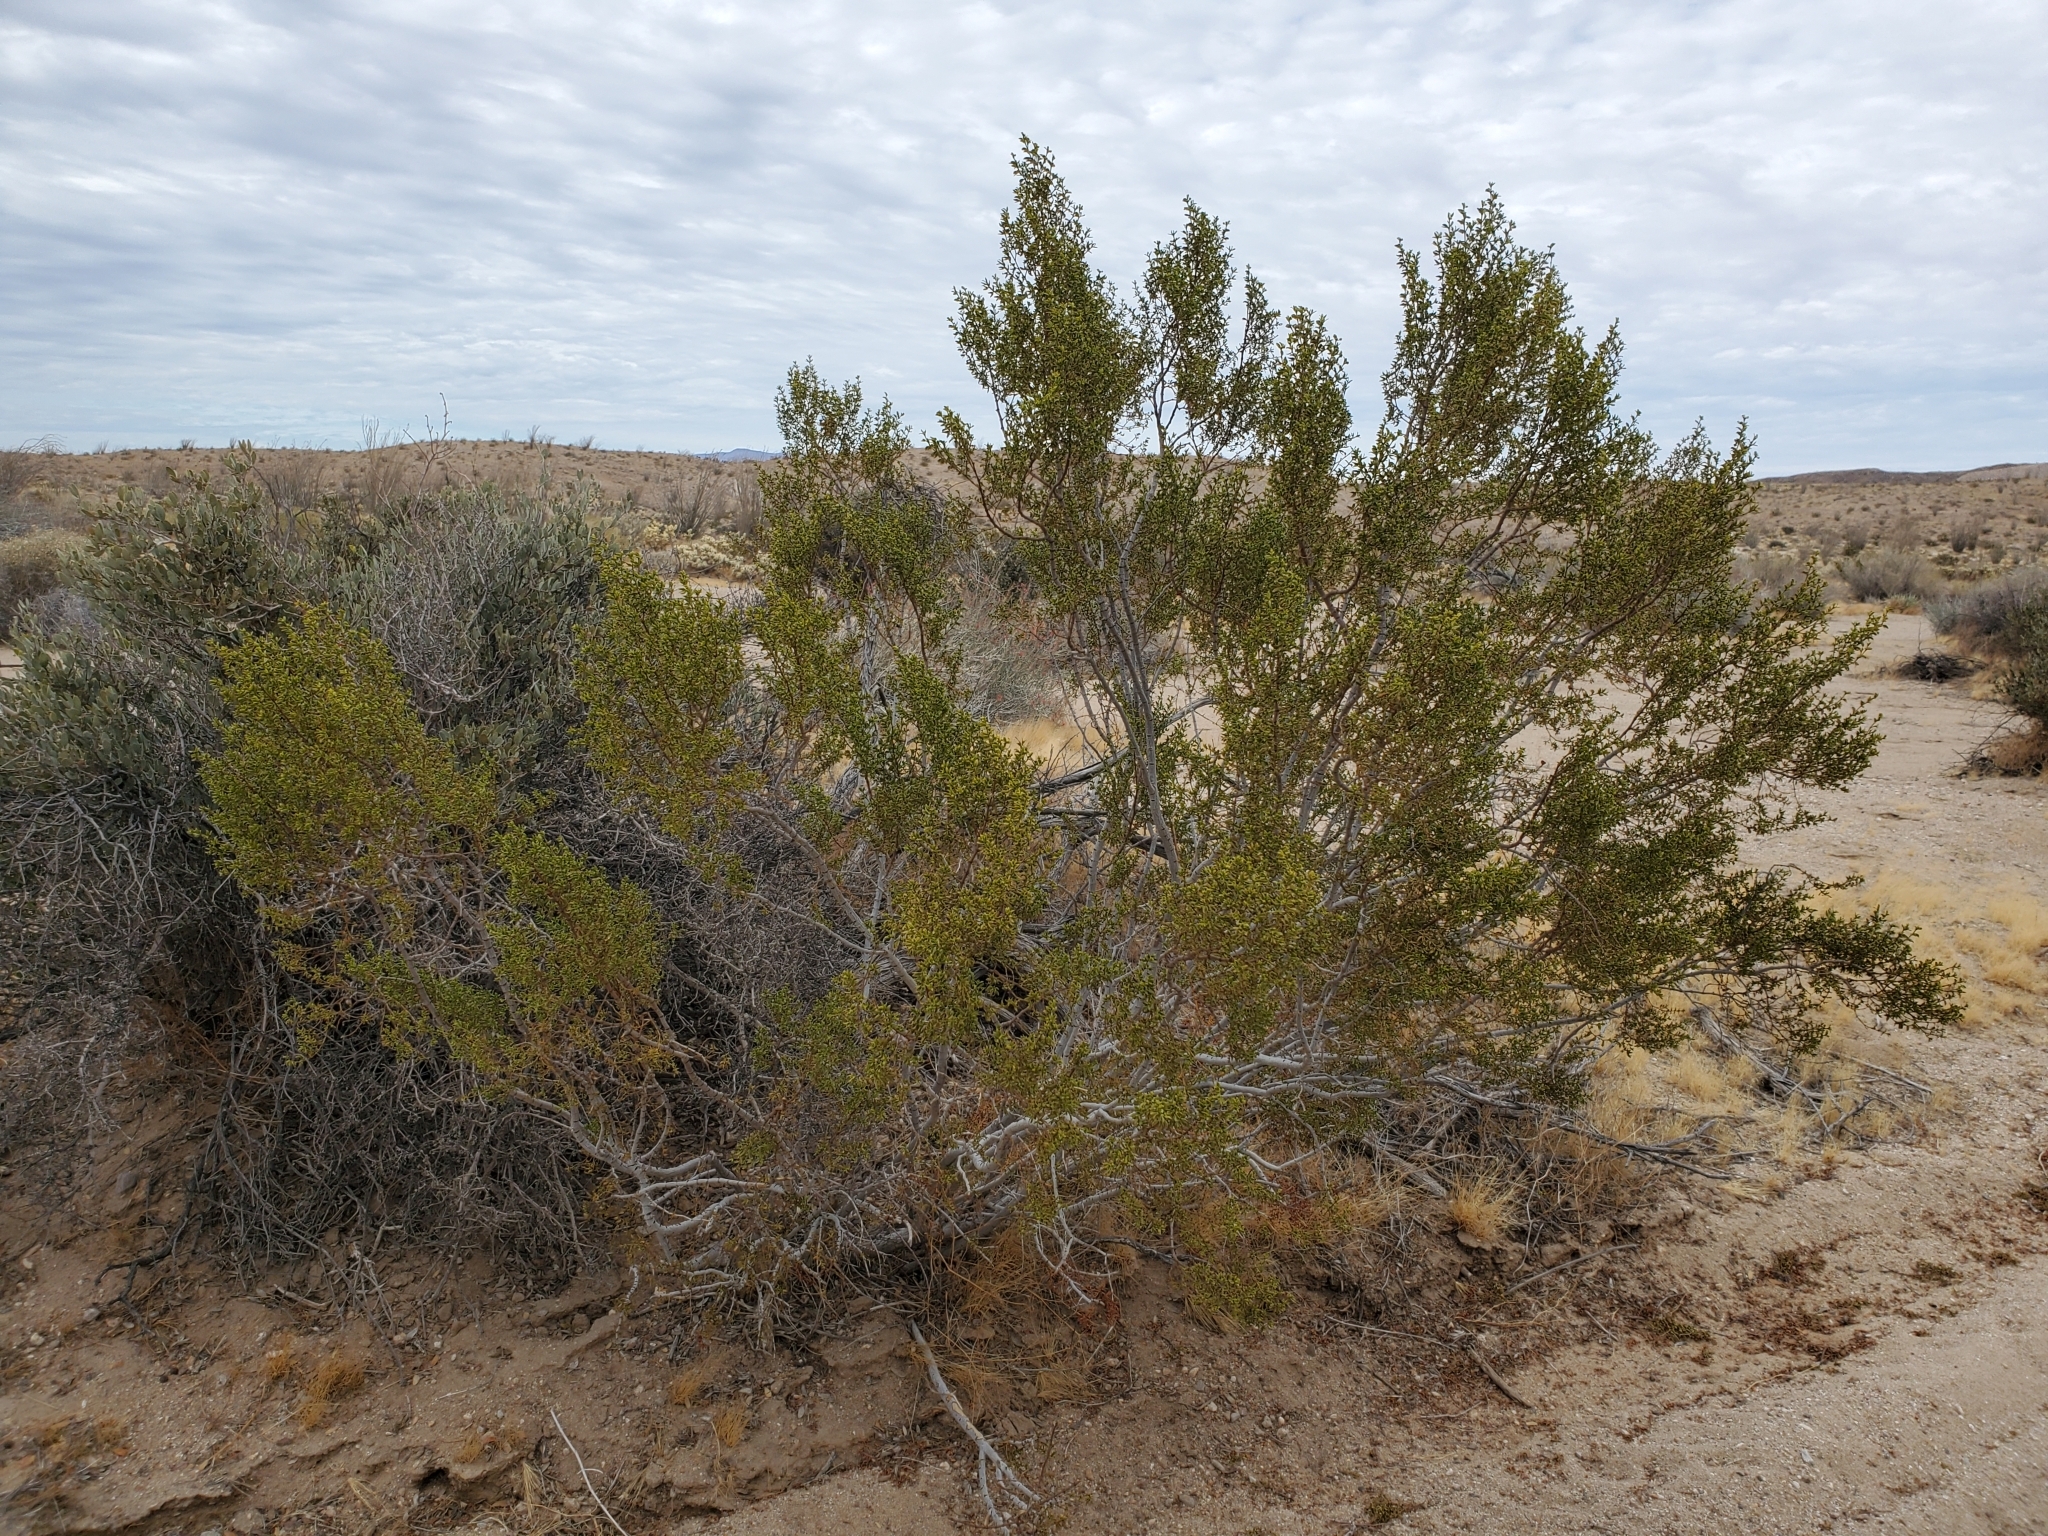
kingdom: Plantae
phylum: Tracheophyta
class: Magnoliopsida
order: Zygophyllales
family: Zygophyllaceae
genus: Larrea
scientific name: Larrea tridentata
